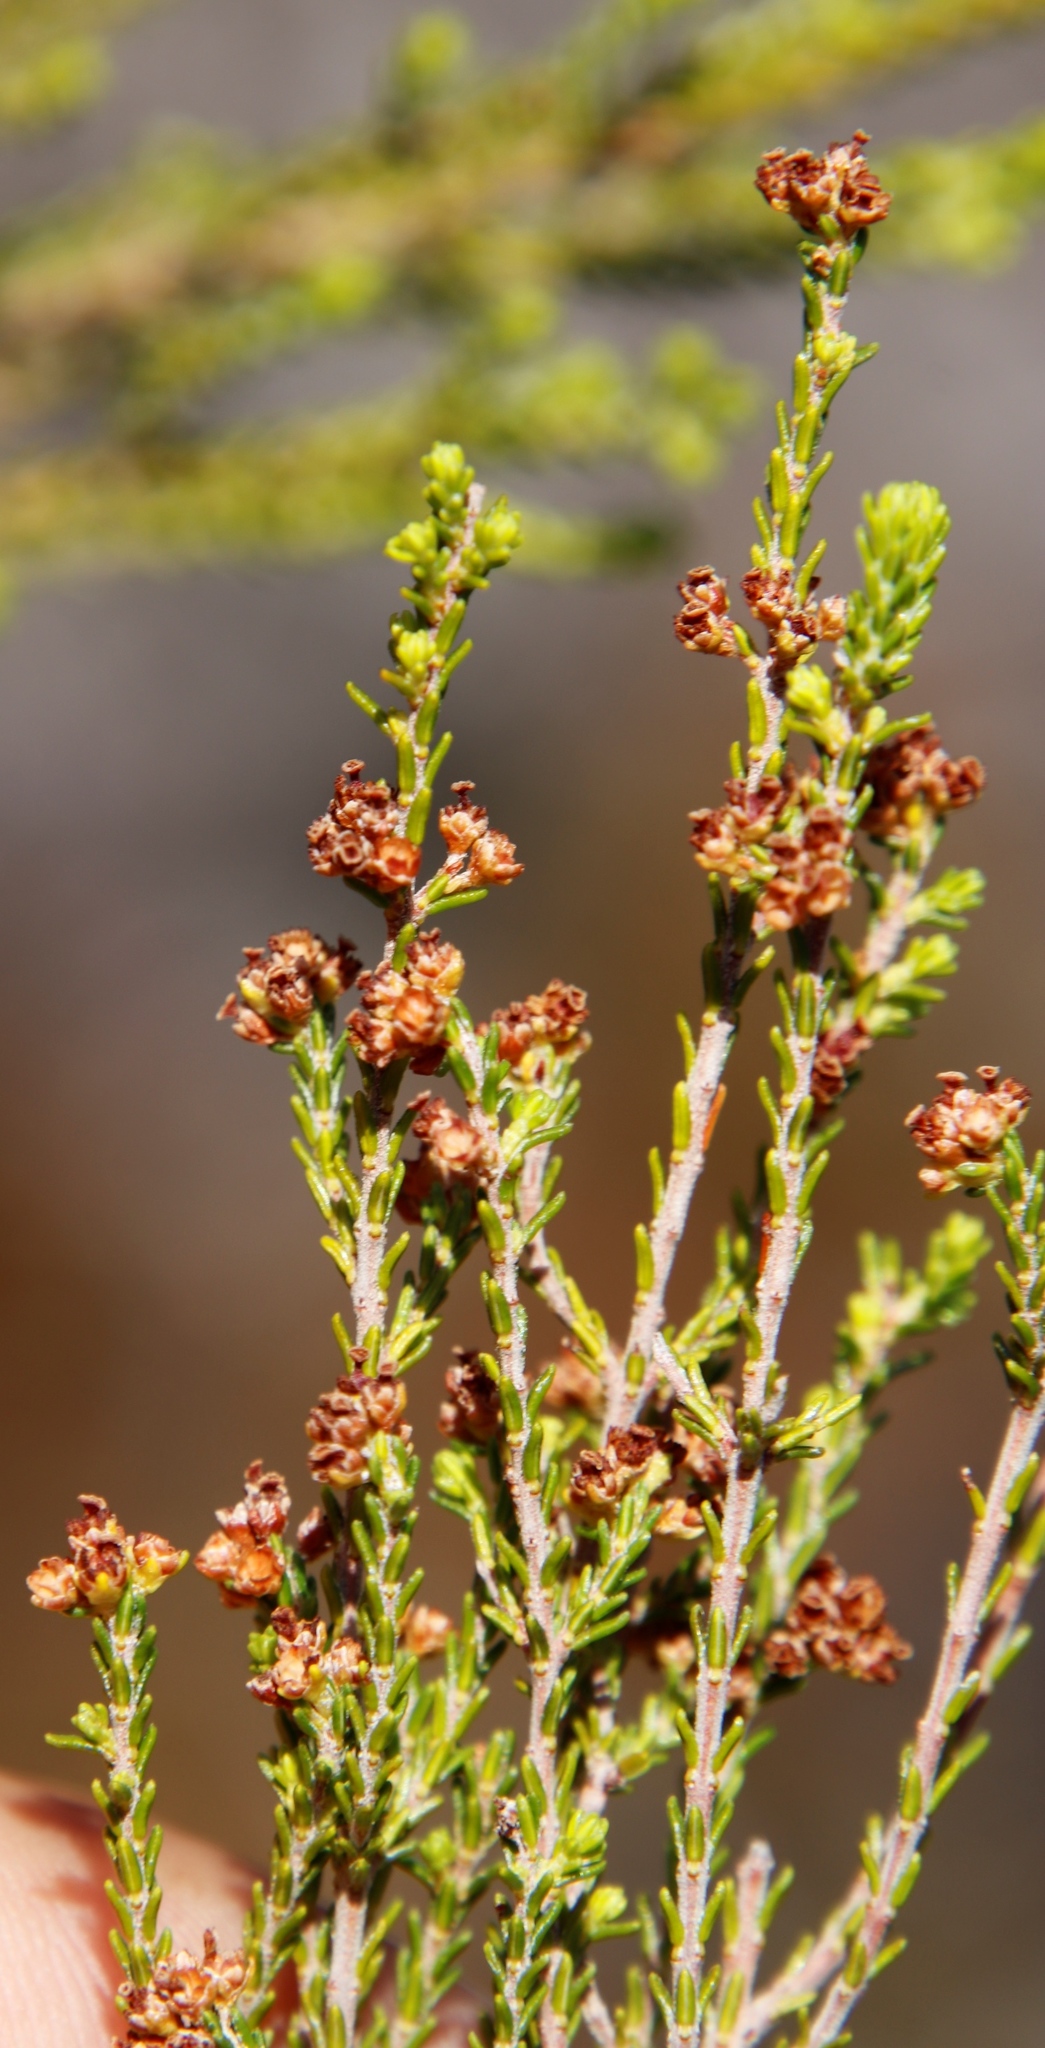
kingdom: Plantae
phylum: Tracheophyta
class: Magnoliopsida
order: Ericales
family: Ericaceae
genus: Erica
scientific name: Erica tristis
